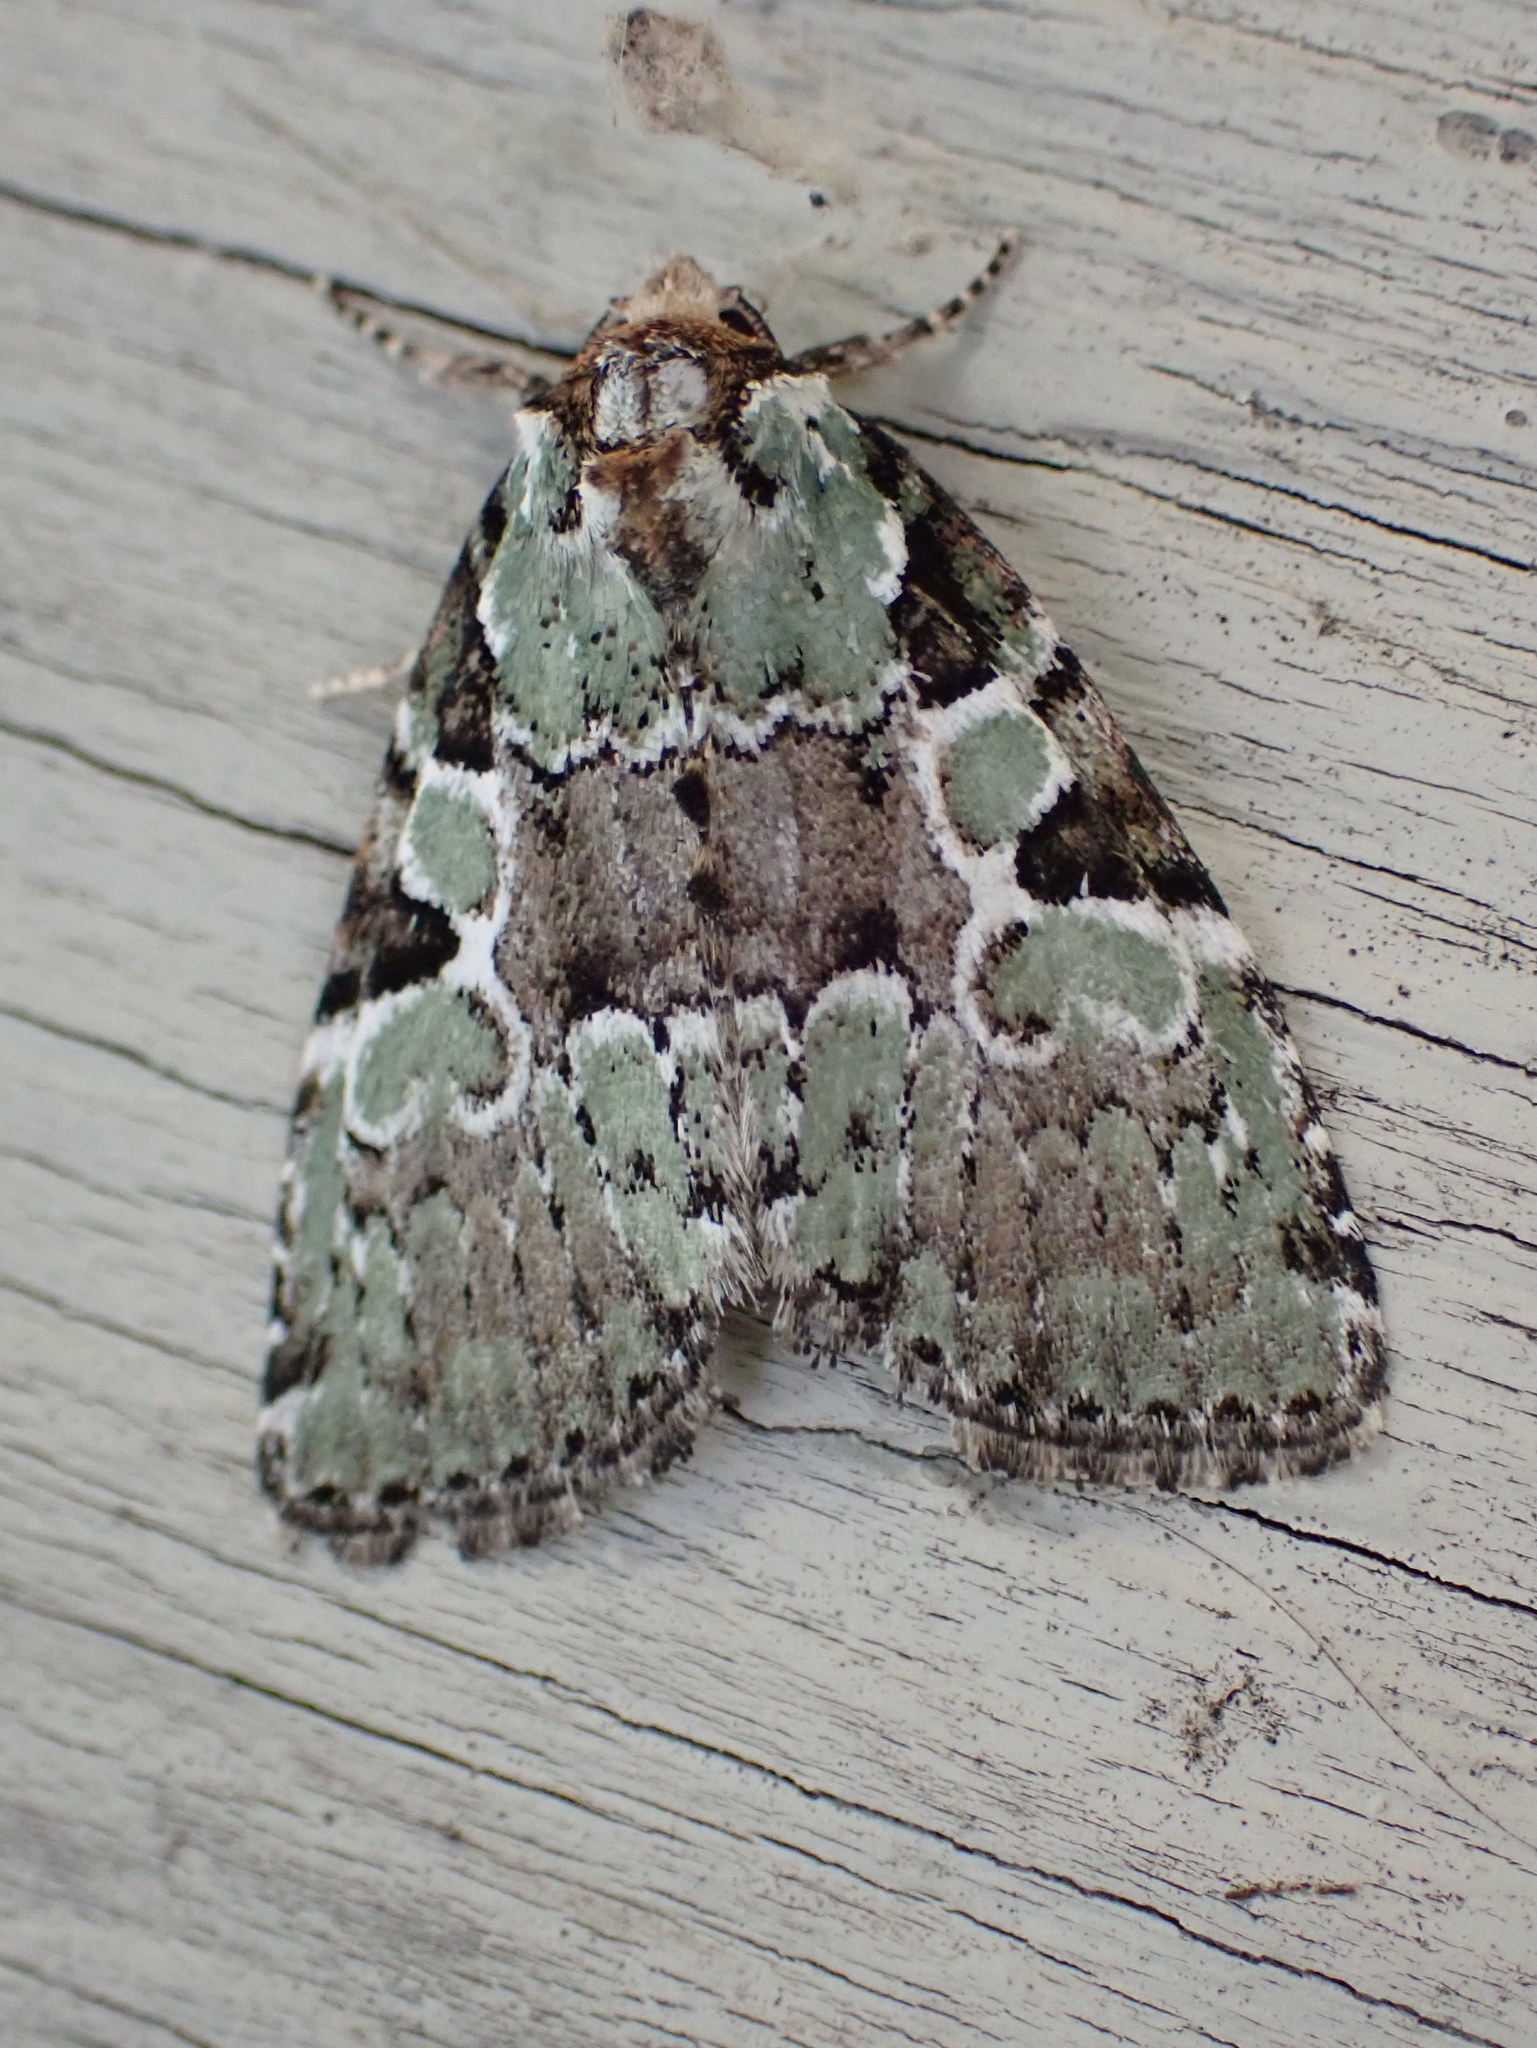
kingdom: Animalia
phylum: Arthropoda
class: Insecta
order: Lepidoptera
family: Noctuidae
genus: Leuconycta
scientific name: Leuconycta lepidula
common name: Marbled-green leuconycta moth
